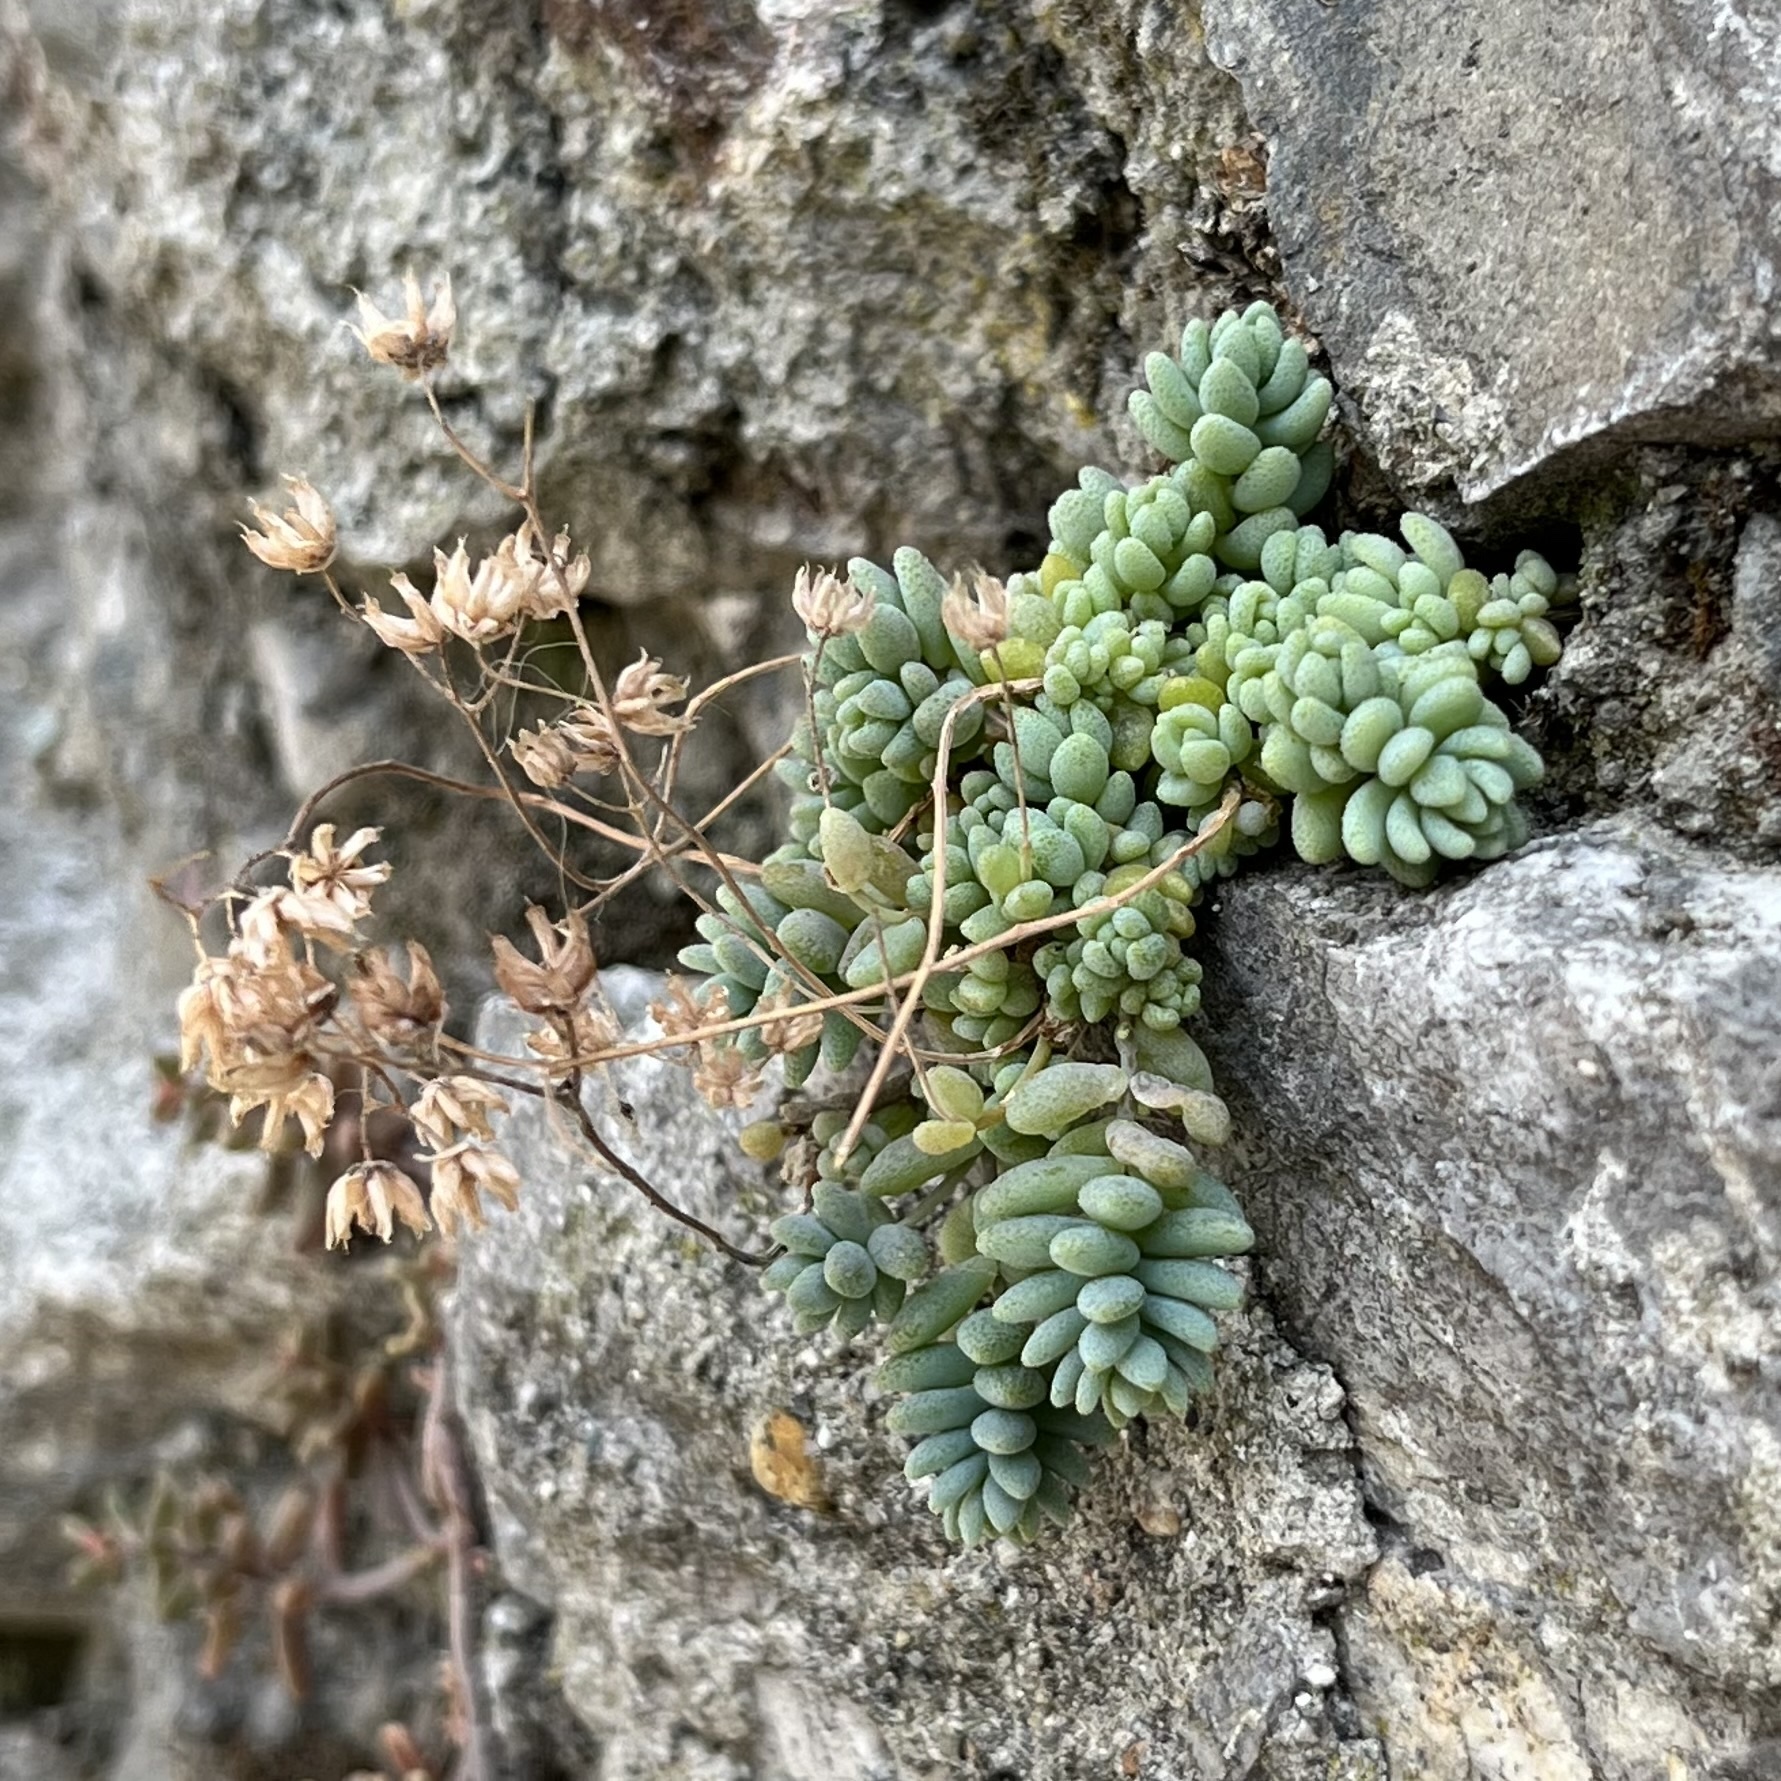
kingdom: Plantae
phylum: Tracheophyta
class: Magnoliopsida
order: Saxifragales
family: Crassulaceae
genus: Sedum
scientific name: Sedum dasyphyllum
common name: Thick-leaf stonecrop
